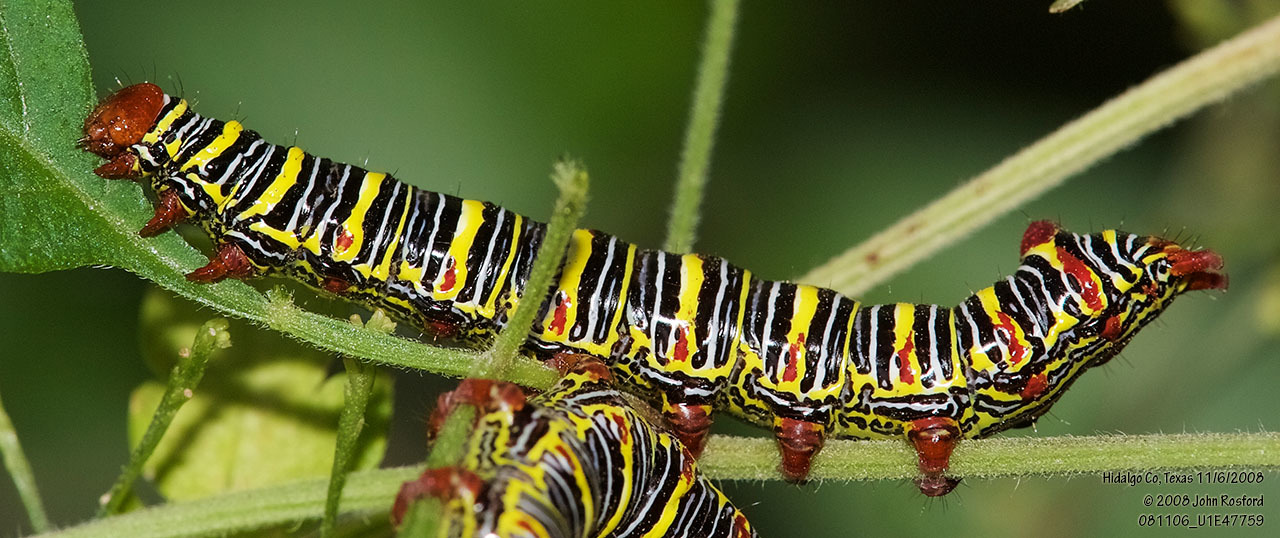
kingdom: Animalia
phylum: Arthropoda
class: Insecta
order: Lepidoptera
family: Notodontidae
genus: Didugua
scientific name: Didugua argentilinea
